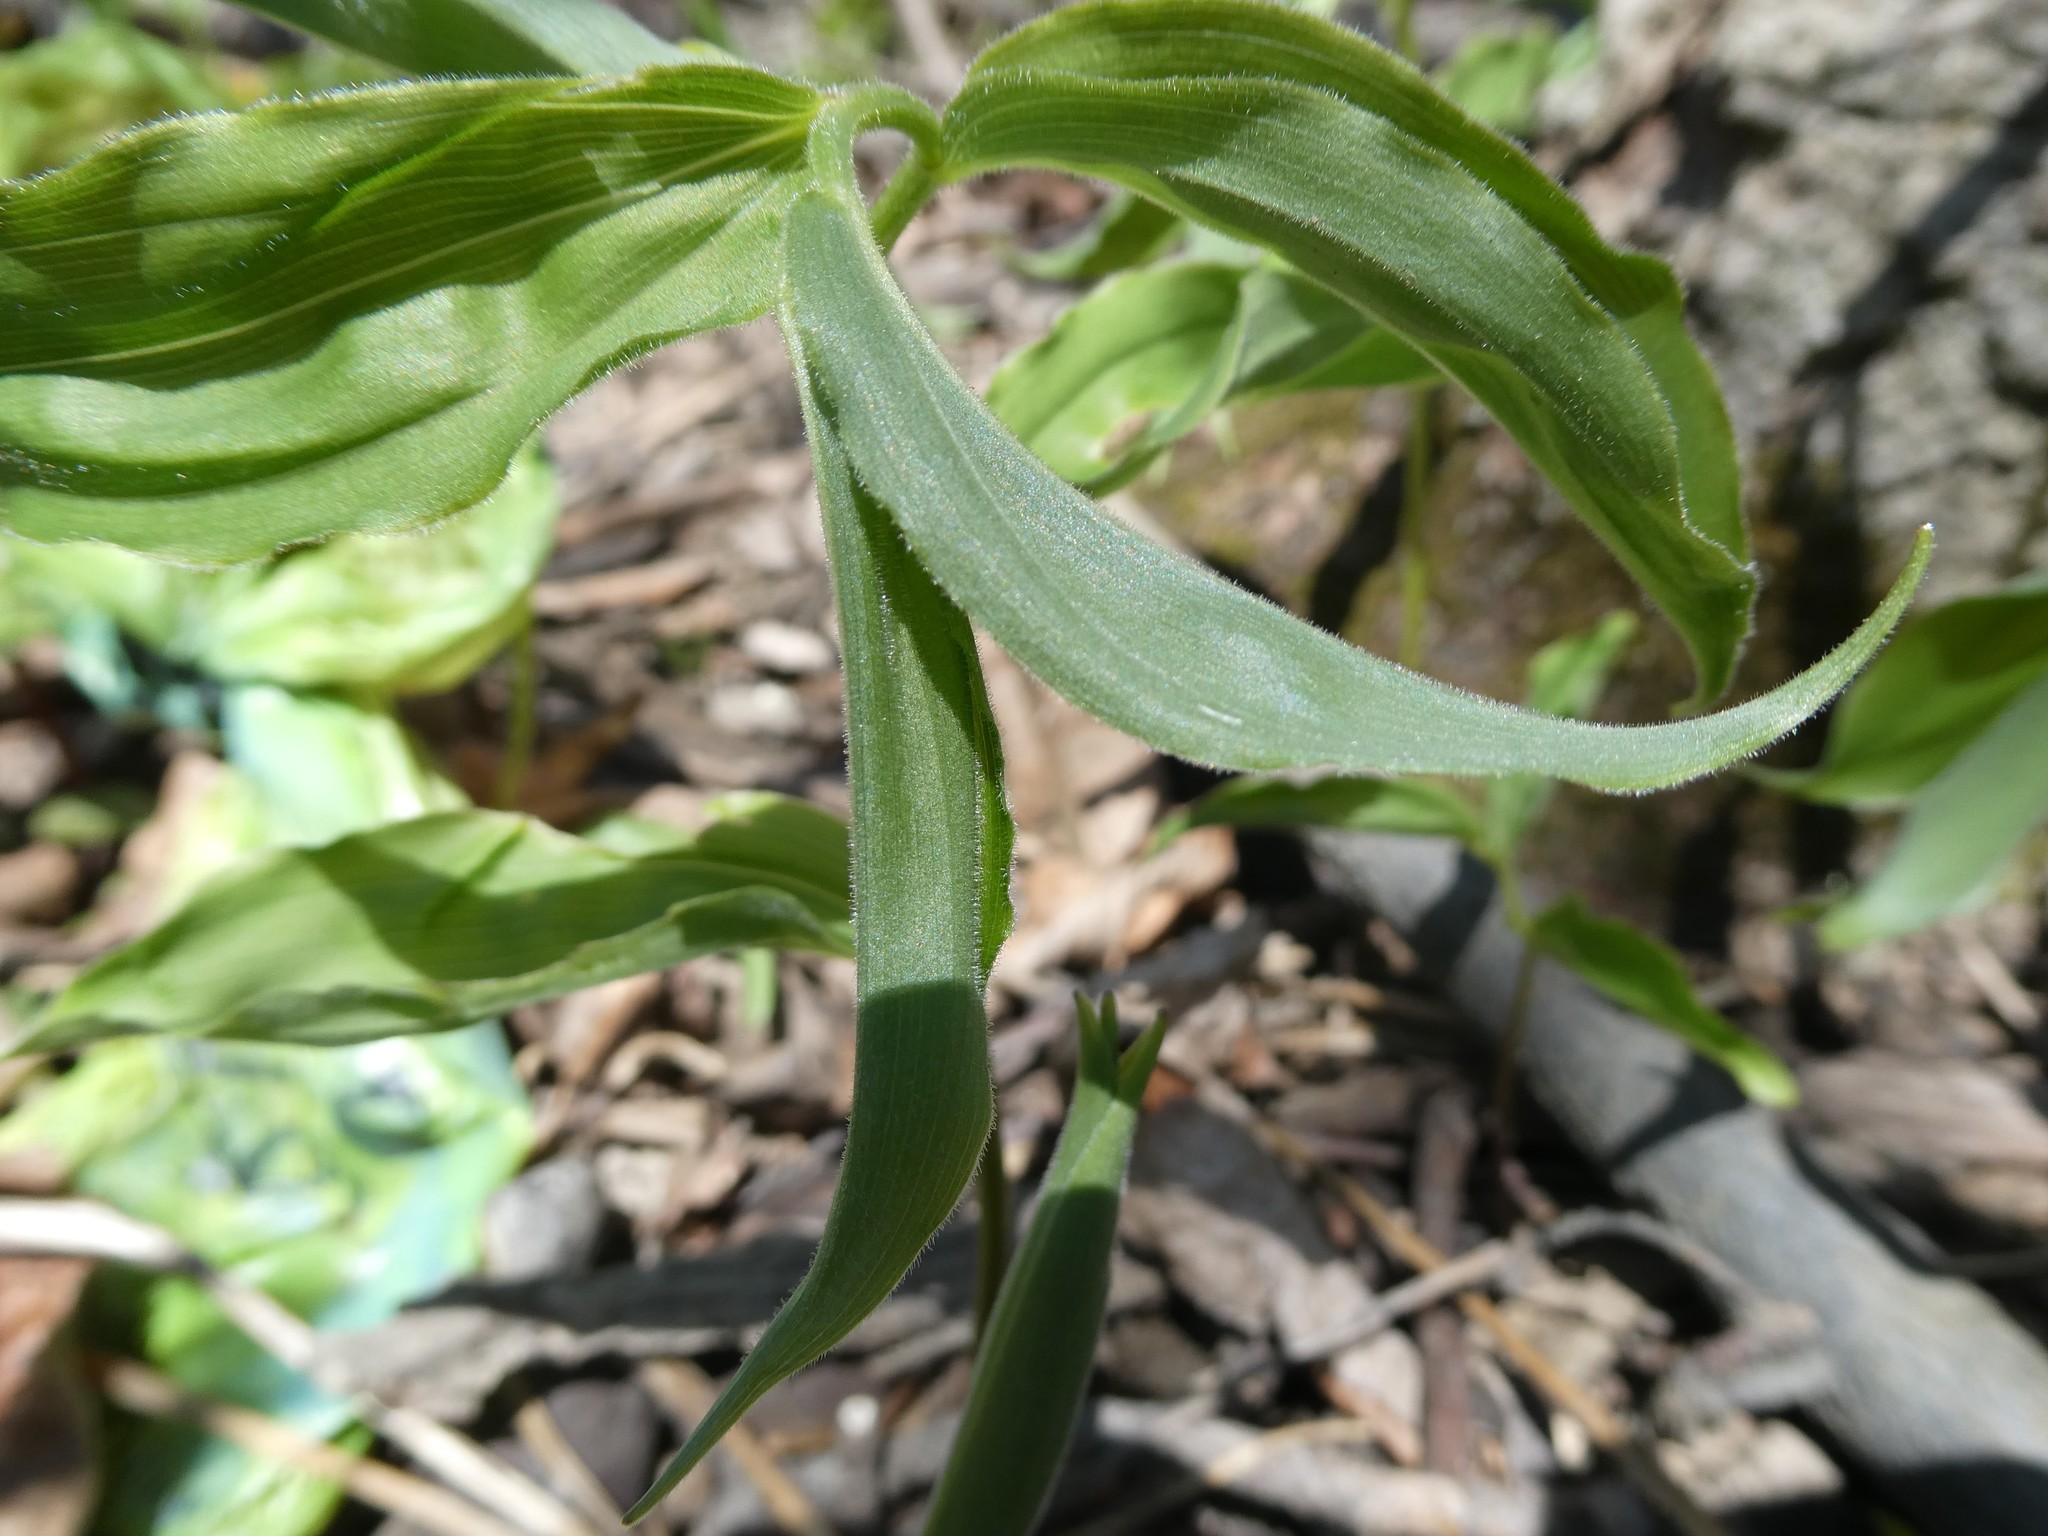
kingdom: Plantae
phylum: Tracheophyta
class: Liliopsida
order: Asparagales
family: Asparagaceae
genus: Maianthemum
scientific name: Maianthemum racemosum
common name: False spikenard
